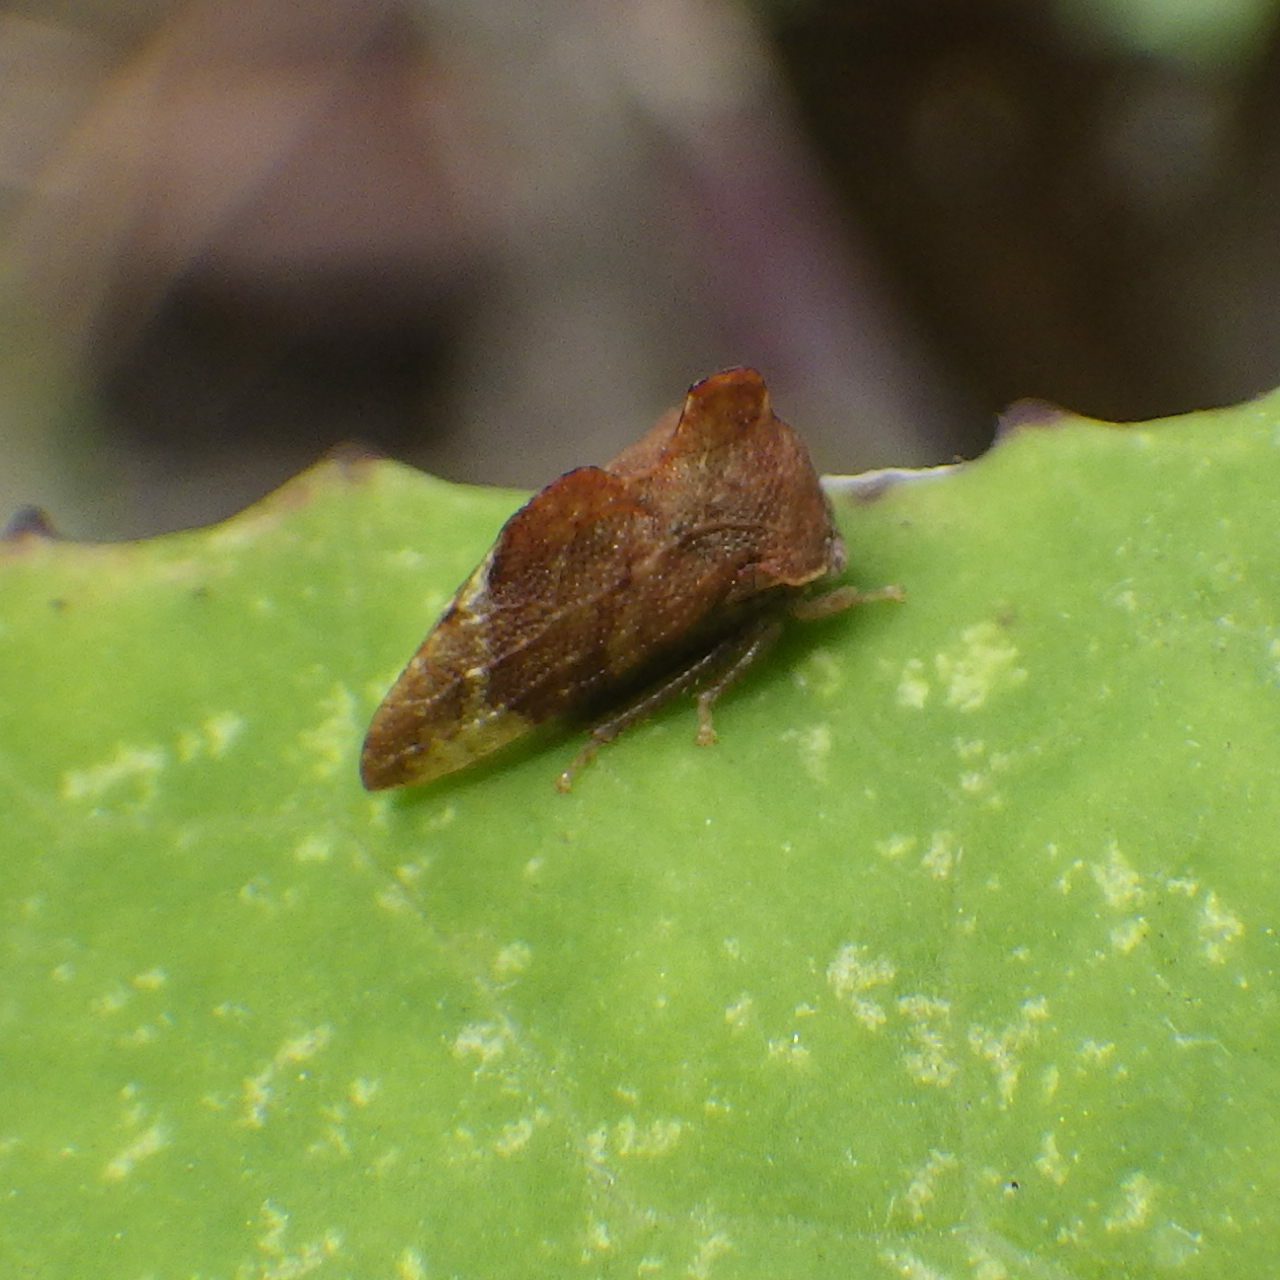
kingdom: Animalia
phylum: Arthropoda
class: Insecta
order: Hemiptera
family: Membracidae
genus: Entylia
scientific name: Entylia carinata
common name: Keeled treehopper
